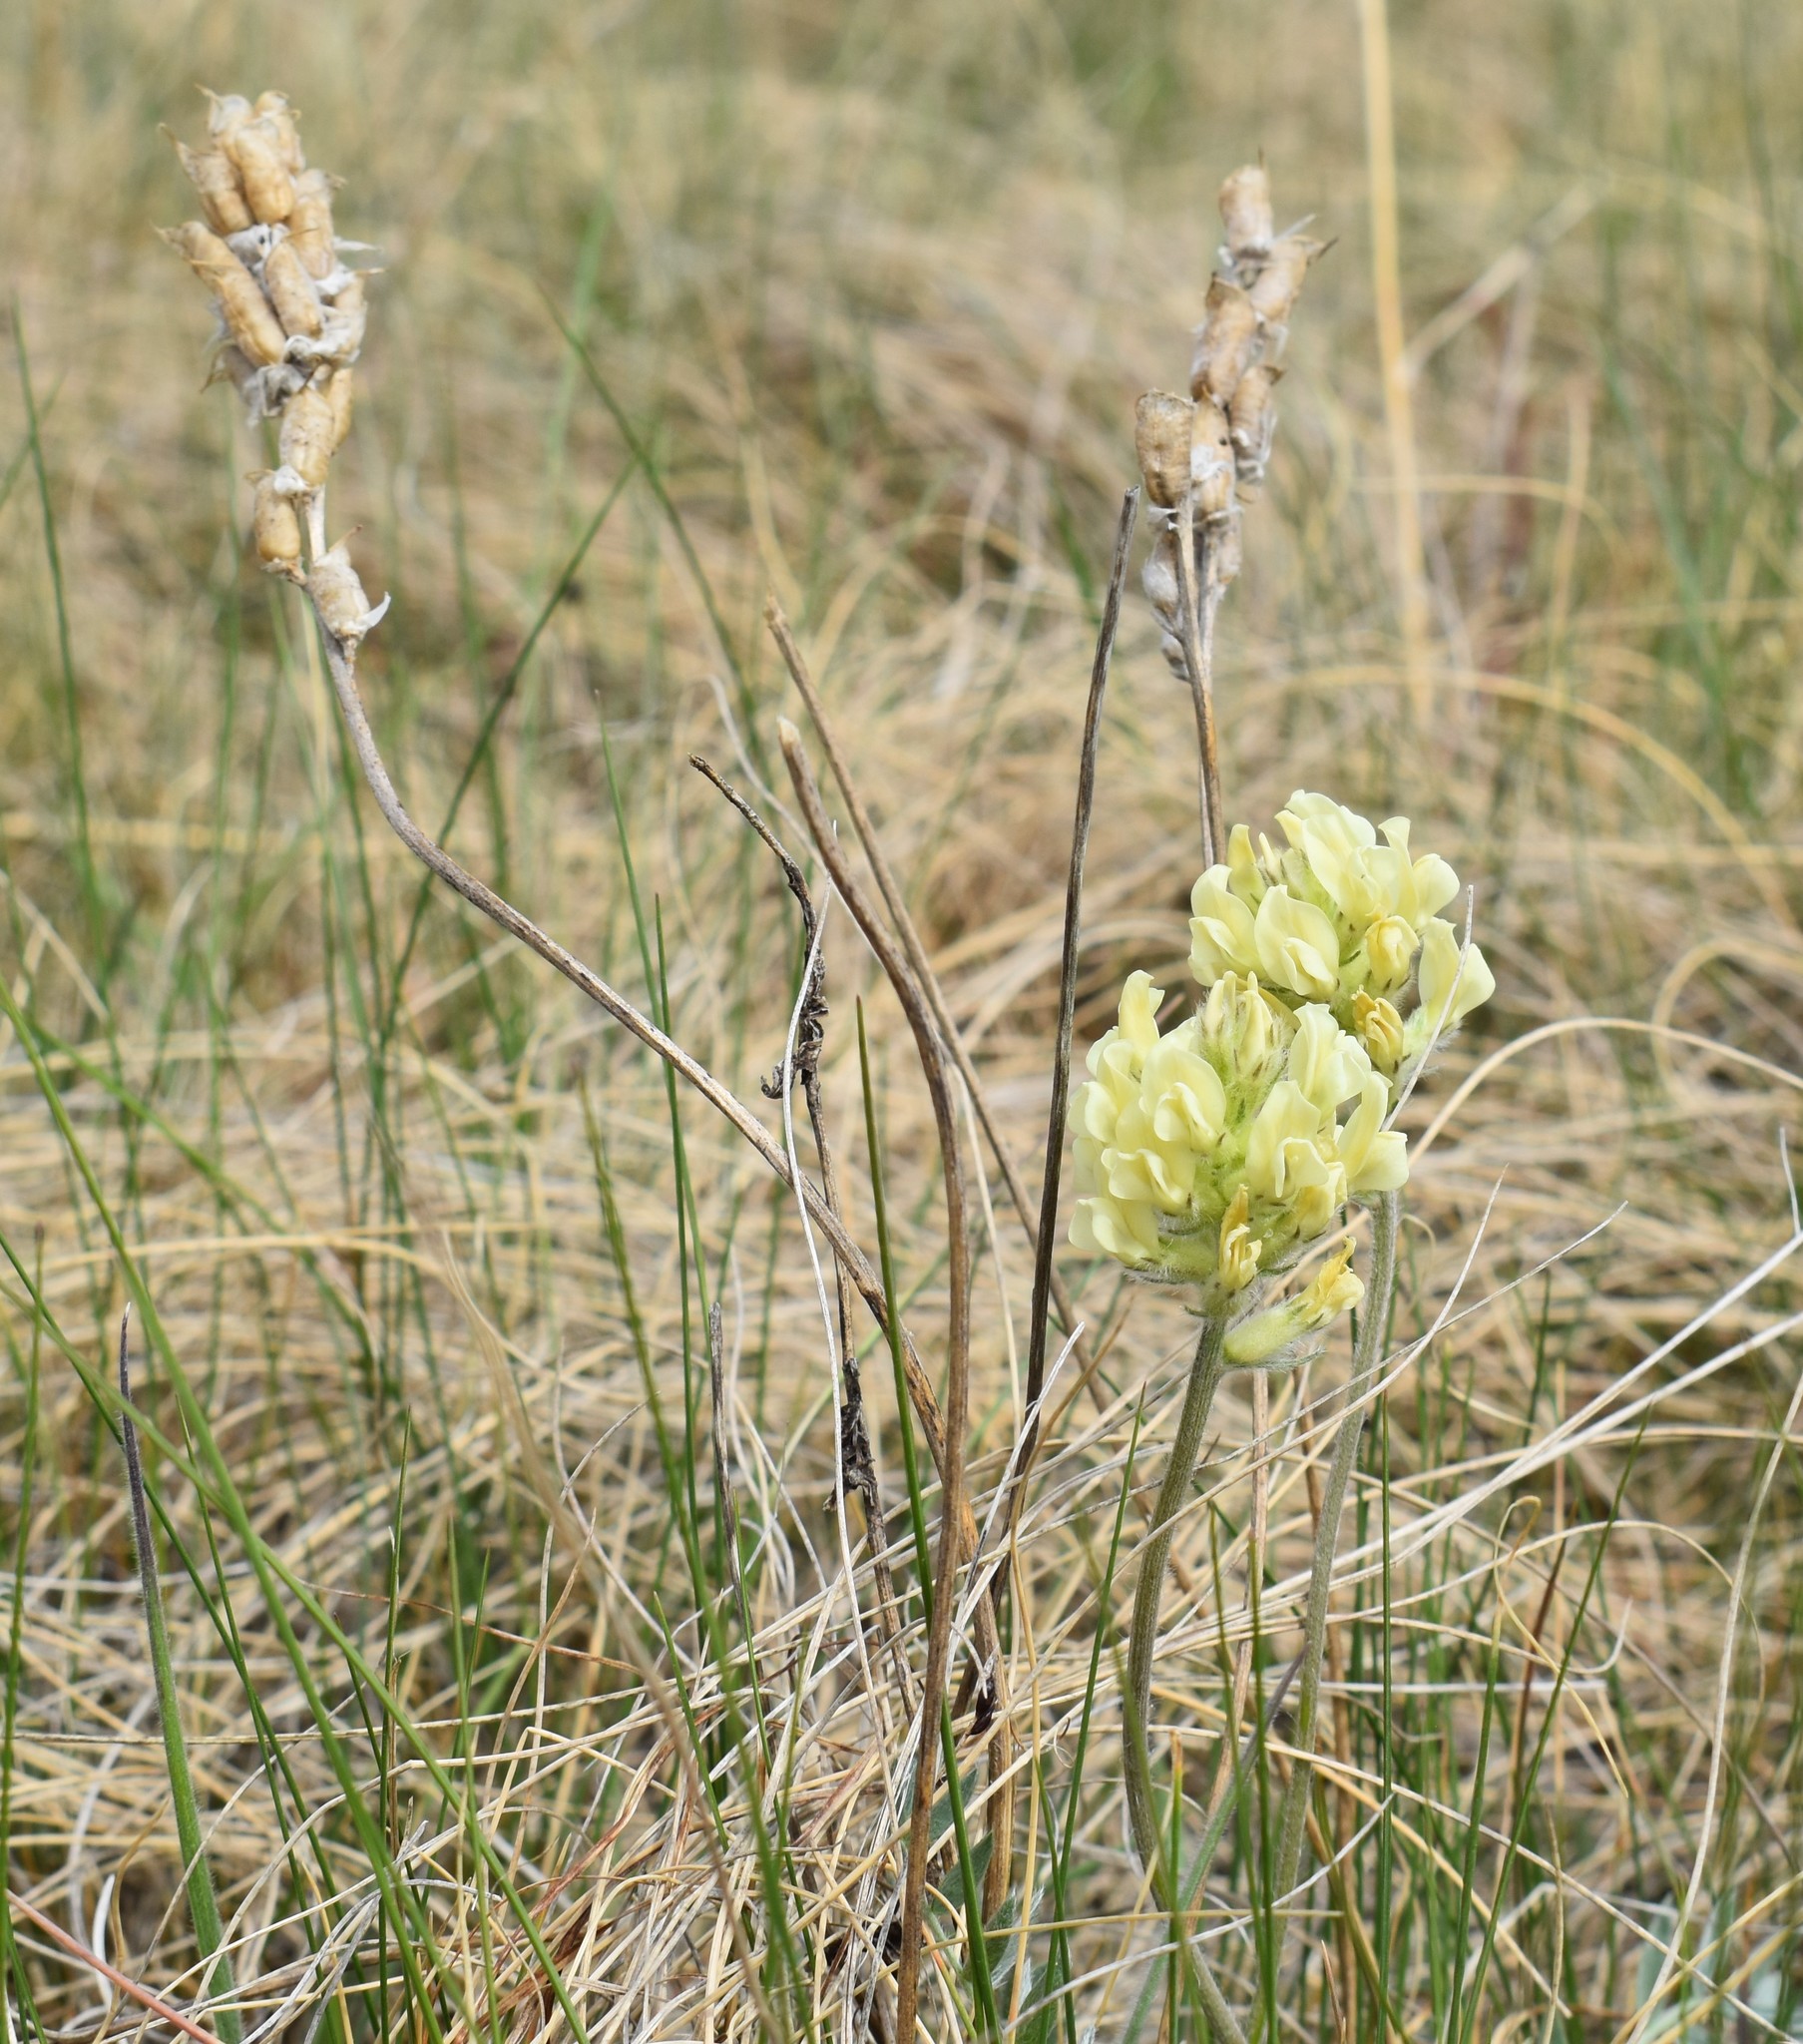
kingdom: Plantae
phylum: Tracheophyta
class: Magnoliopsida
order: Fabales
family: Fabaceae
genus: Oxytropis
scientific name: Oxytropis sericea
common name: Silky locoweed
